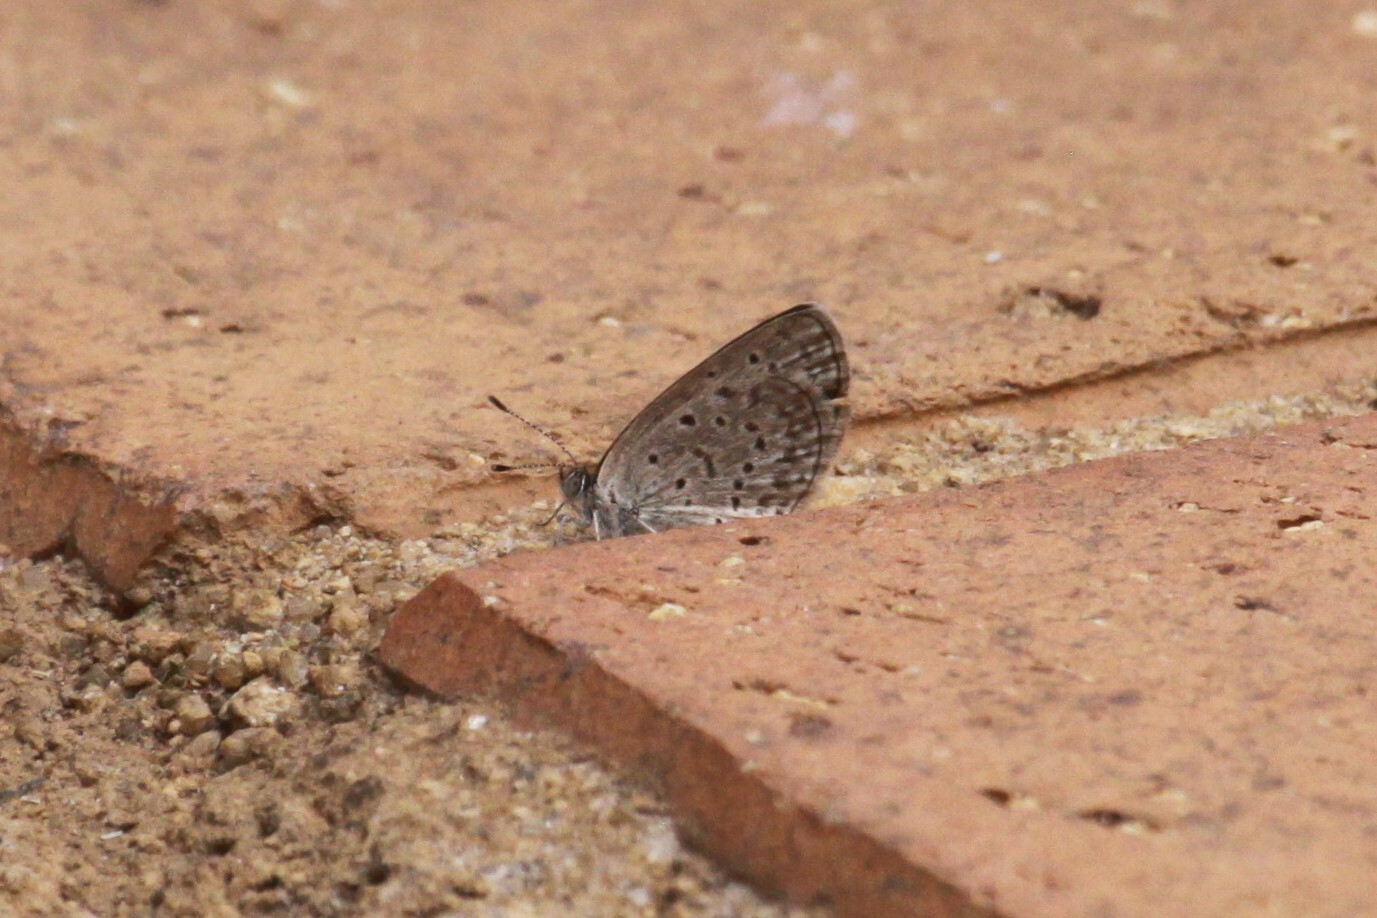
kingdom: Animalia
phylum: Arthropoda
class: Insecta
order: Lepidoptera
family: Lycaenidae
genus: Zizeeria
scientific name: Zizeeria knysna
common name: African grass blue
